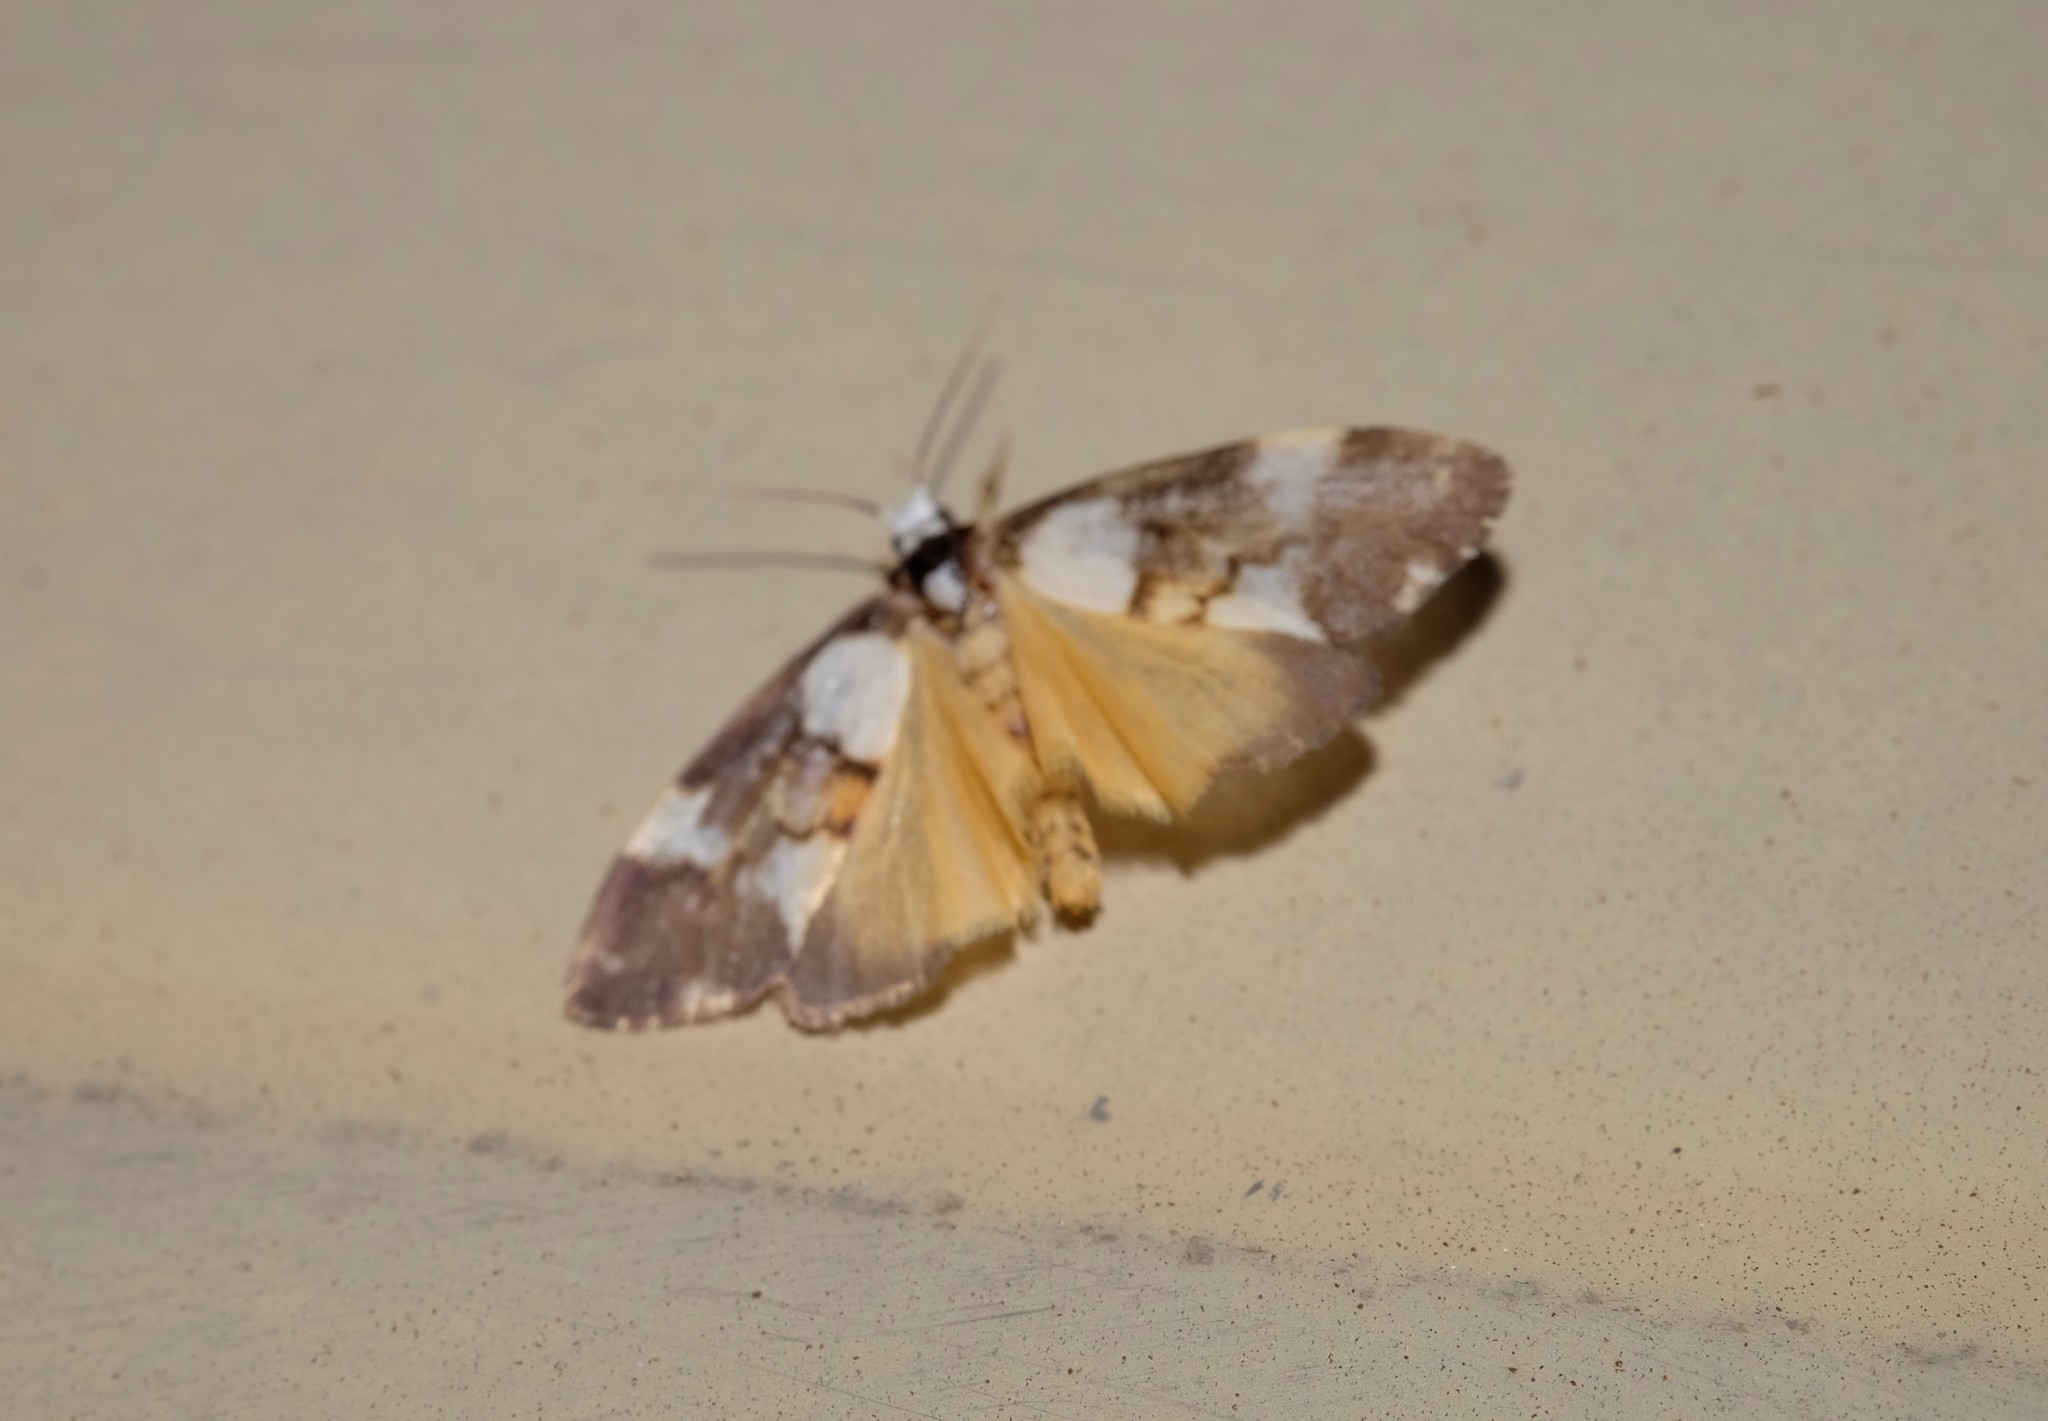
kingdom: Animalia
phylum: Arthropoda
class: Insecta
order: Lepidoptera
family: Erebidae
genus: Philenora
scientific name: Philenora elegans
